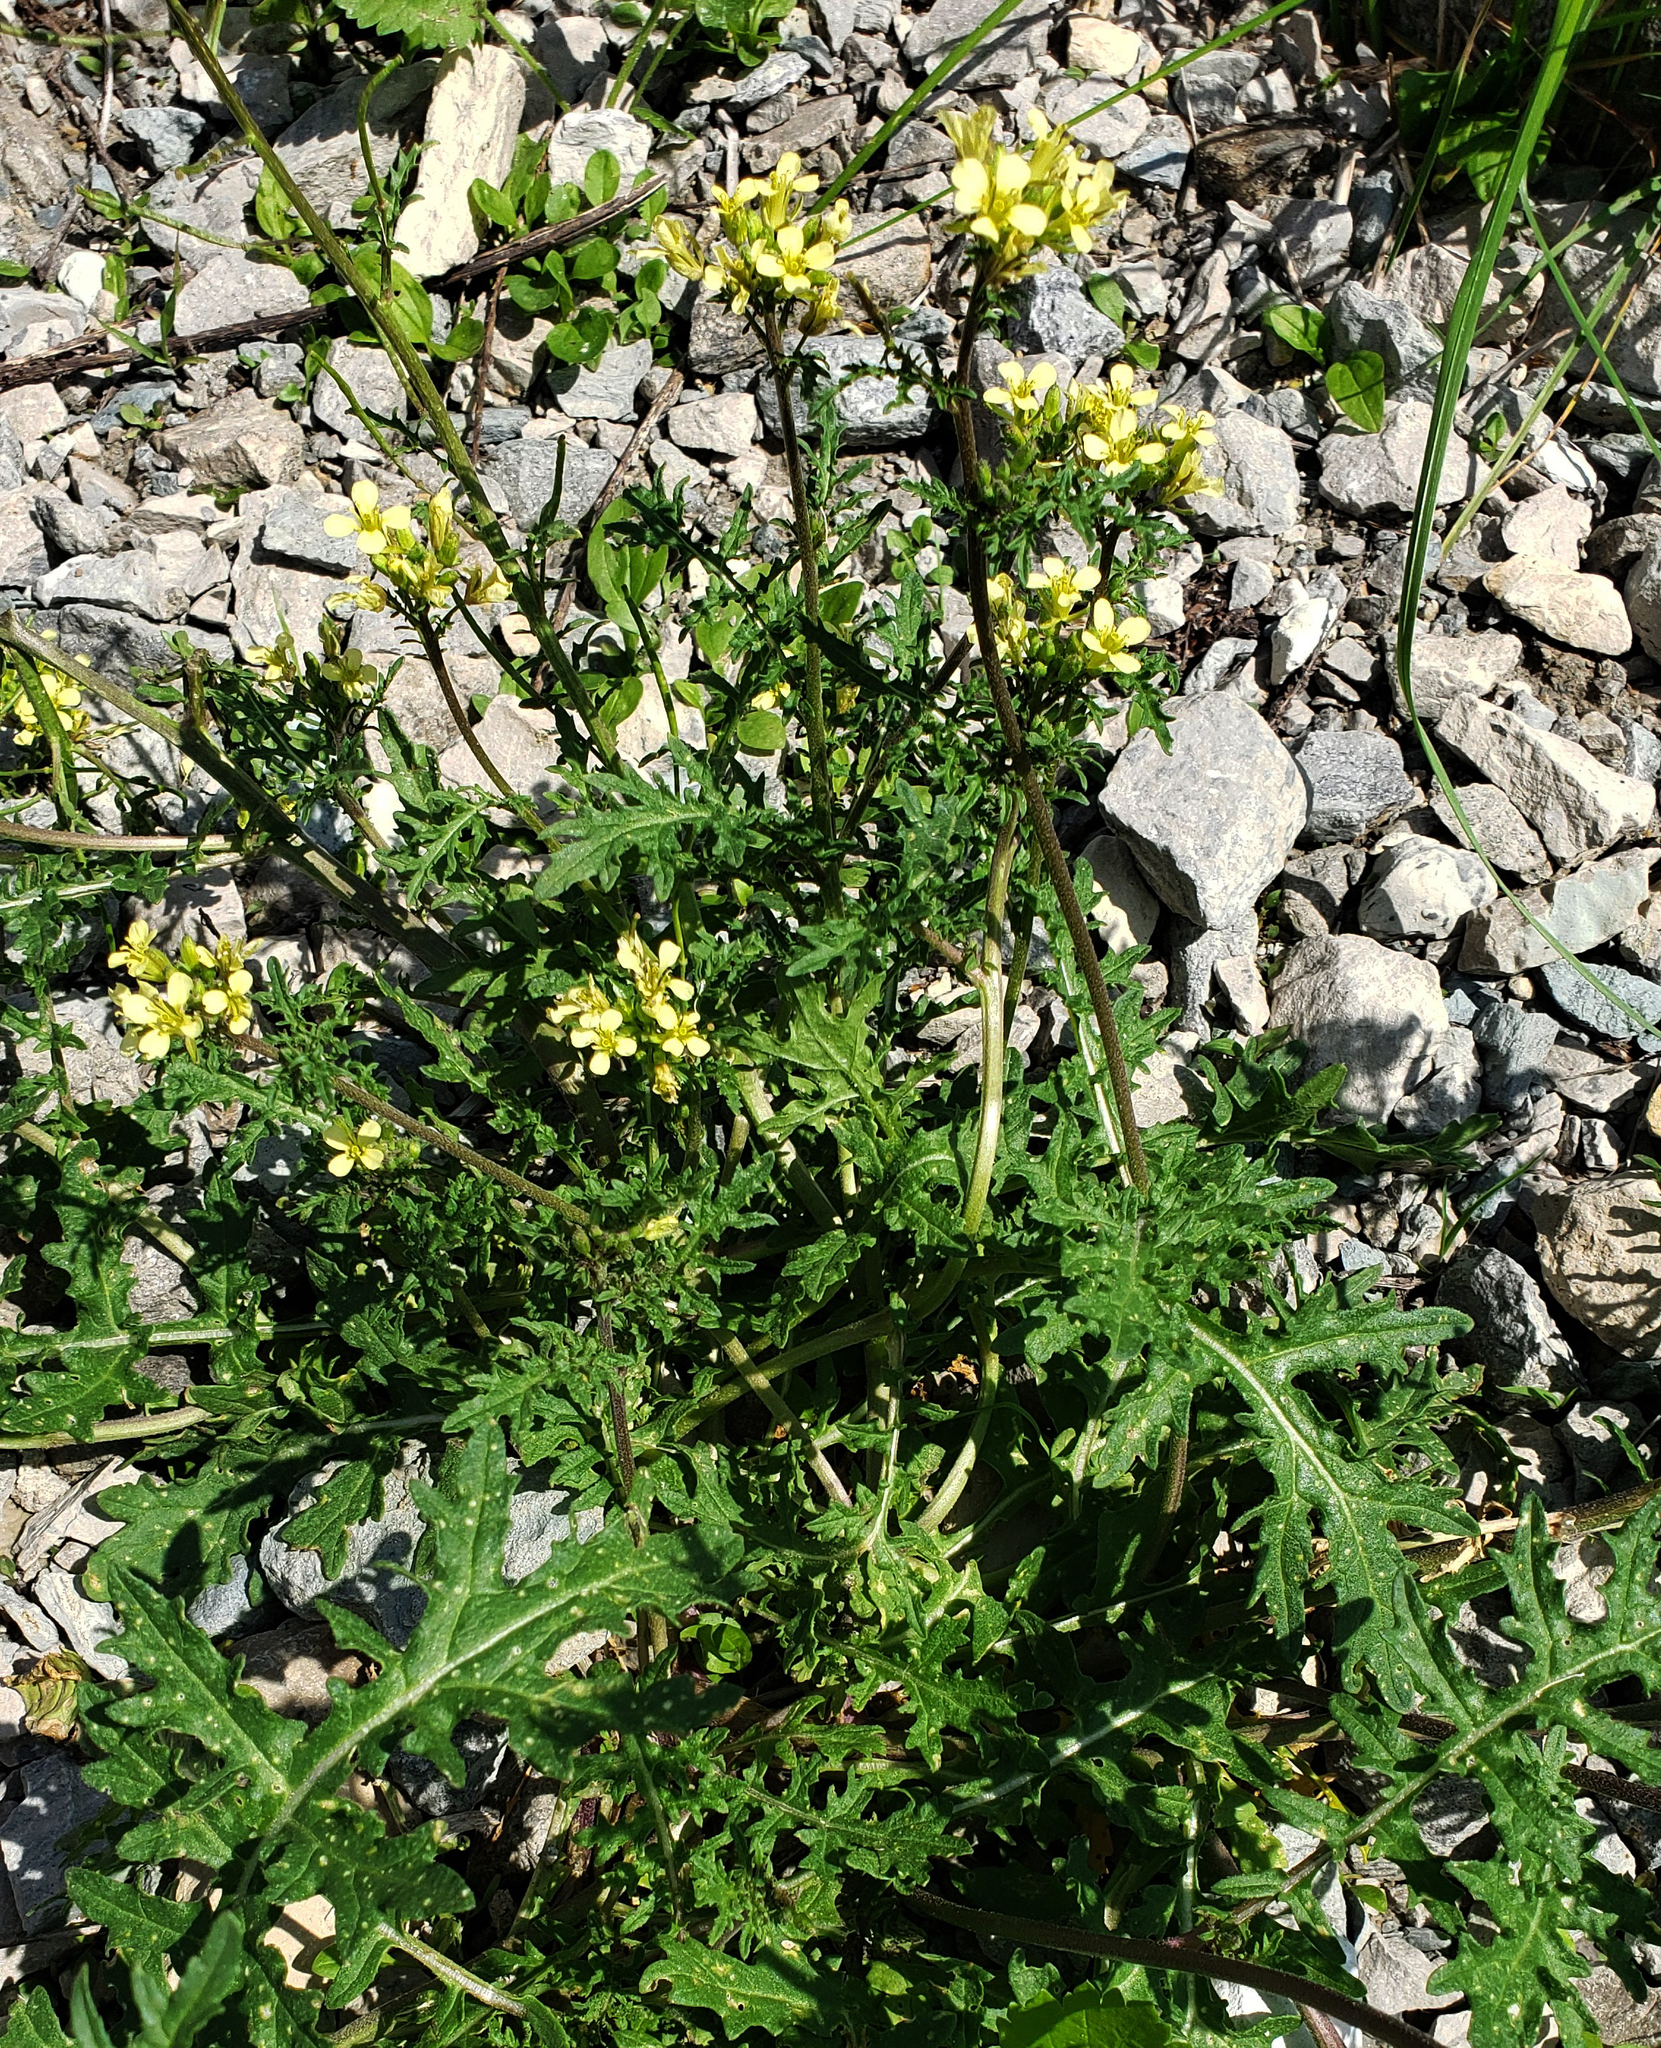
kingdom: Plantae
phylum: Tracheophyta
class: Magnoliopsida
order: Brassicales
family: Brassicaceae
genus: Erucastrum
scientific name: Erucastrum gallicum
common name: Hairy rocket
